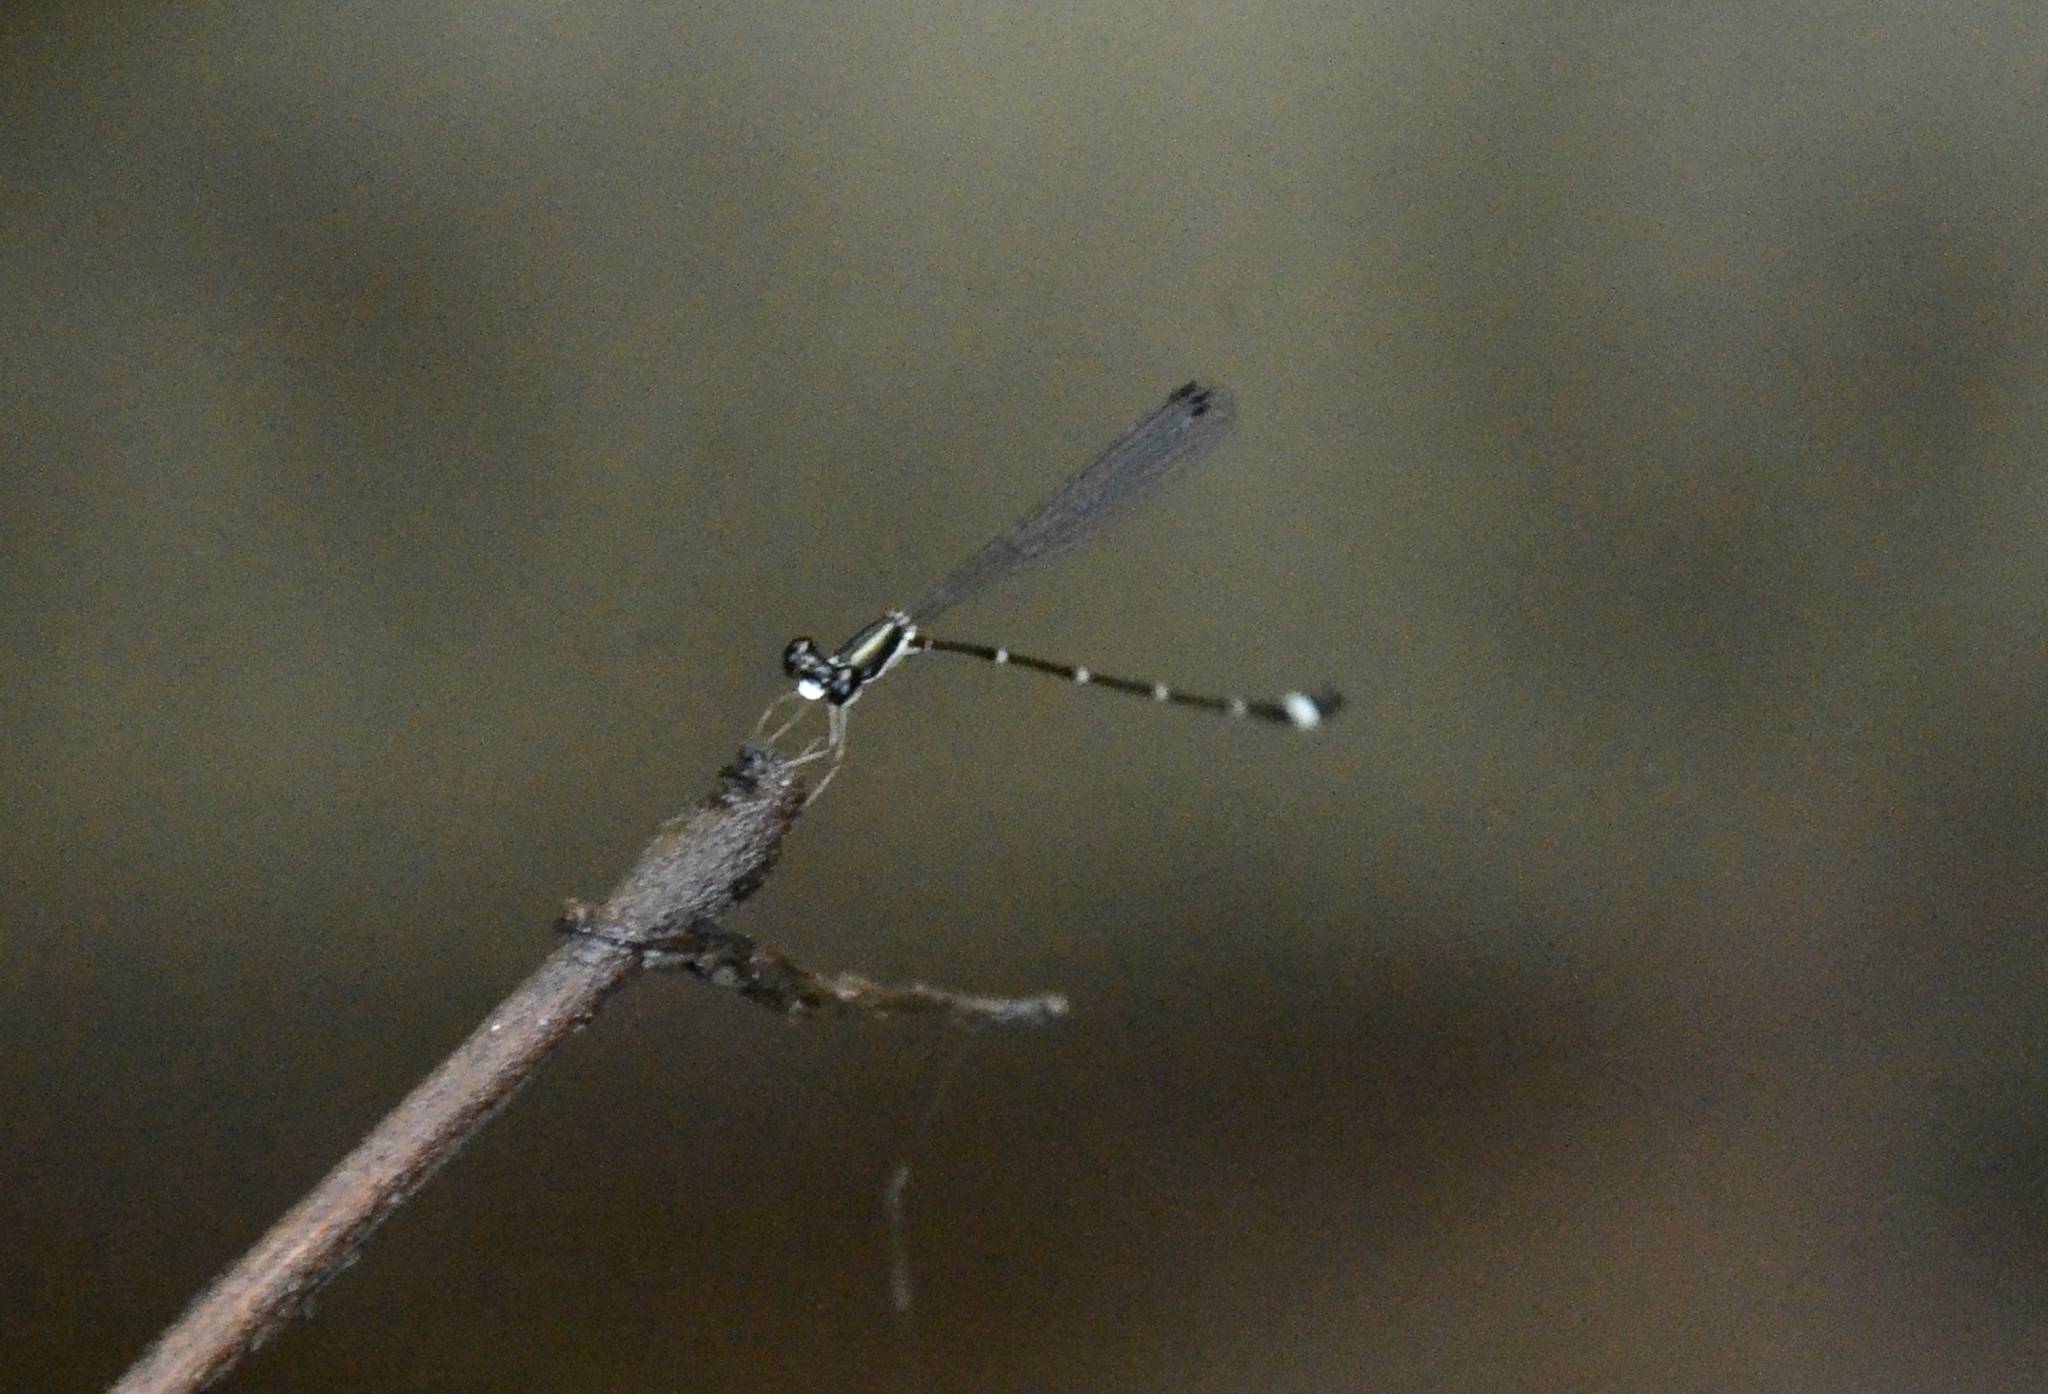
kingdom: Animalia
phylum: Arthropoda
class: Insecta
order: Odonata
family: Platystictidae
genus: Protosticta
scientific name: Protosticta gravelyi
